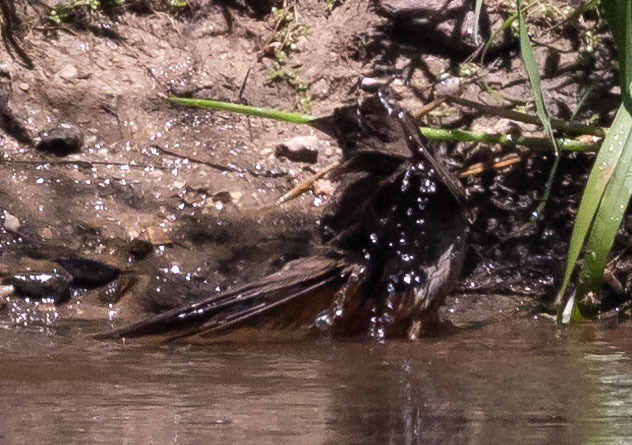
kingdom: Animalia
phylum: Chordata
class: Aves
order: Passeriformes
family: Passerellidae
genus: Melozone
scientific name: Melozone crissalis
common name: California towhee
